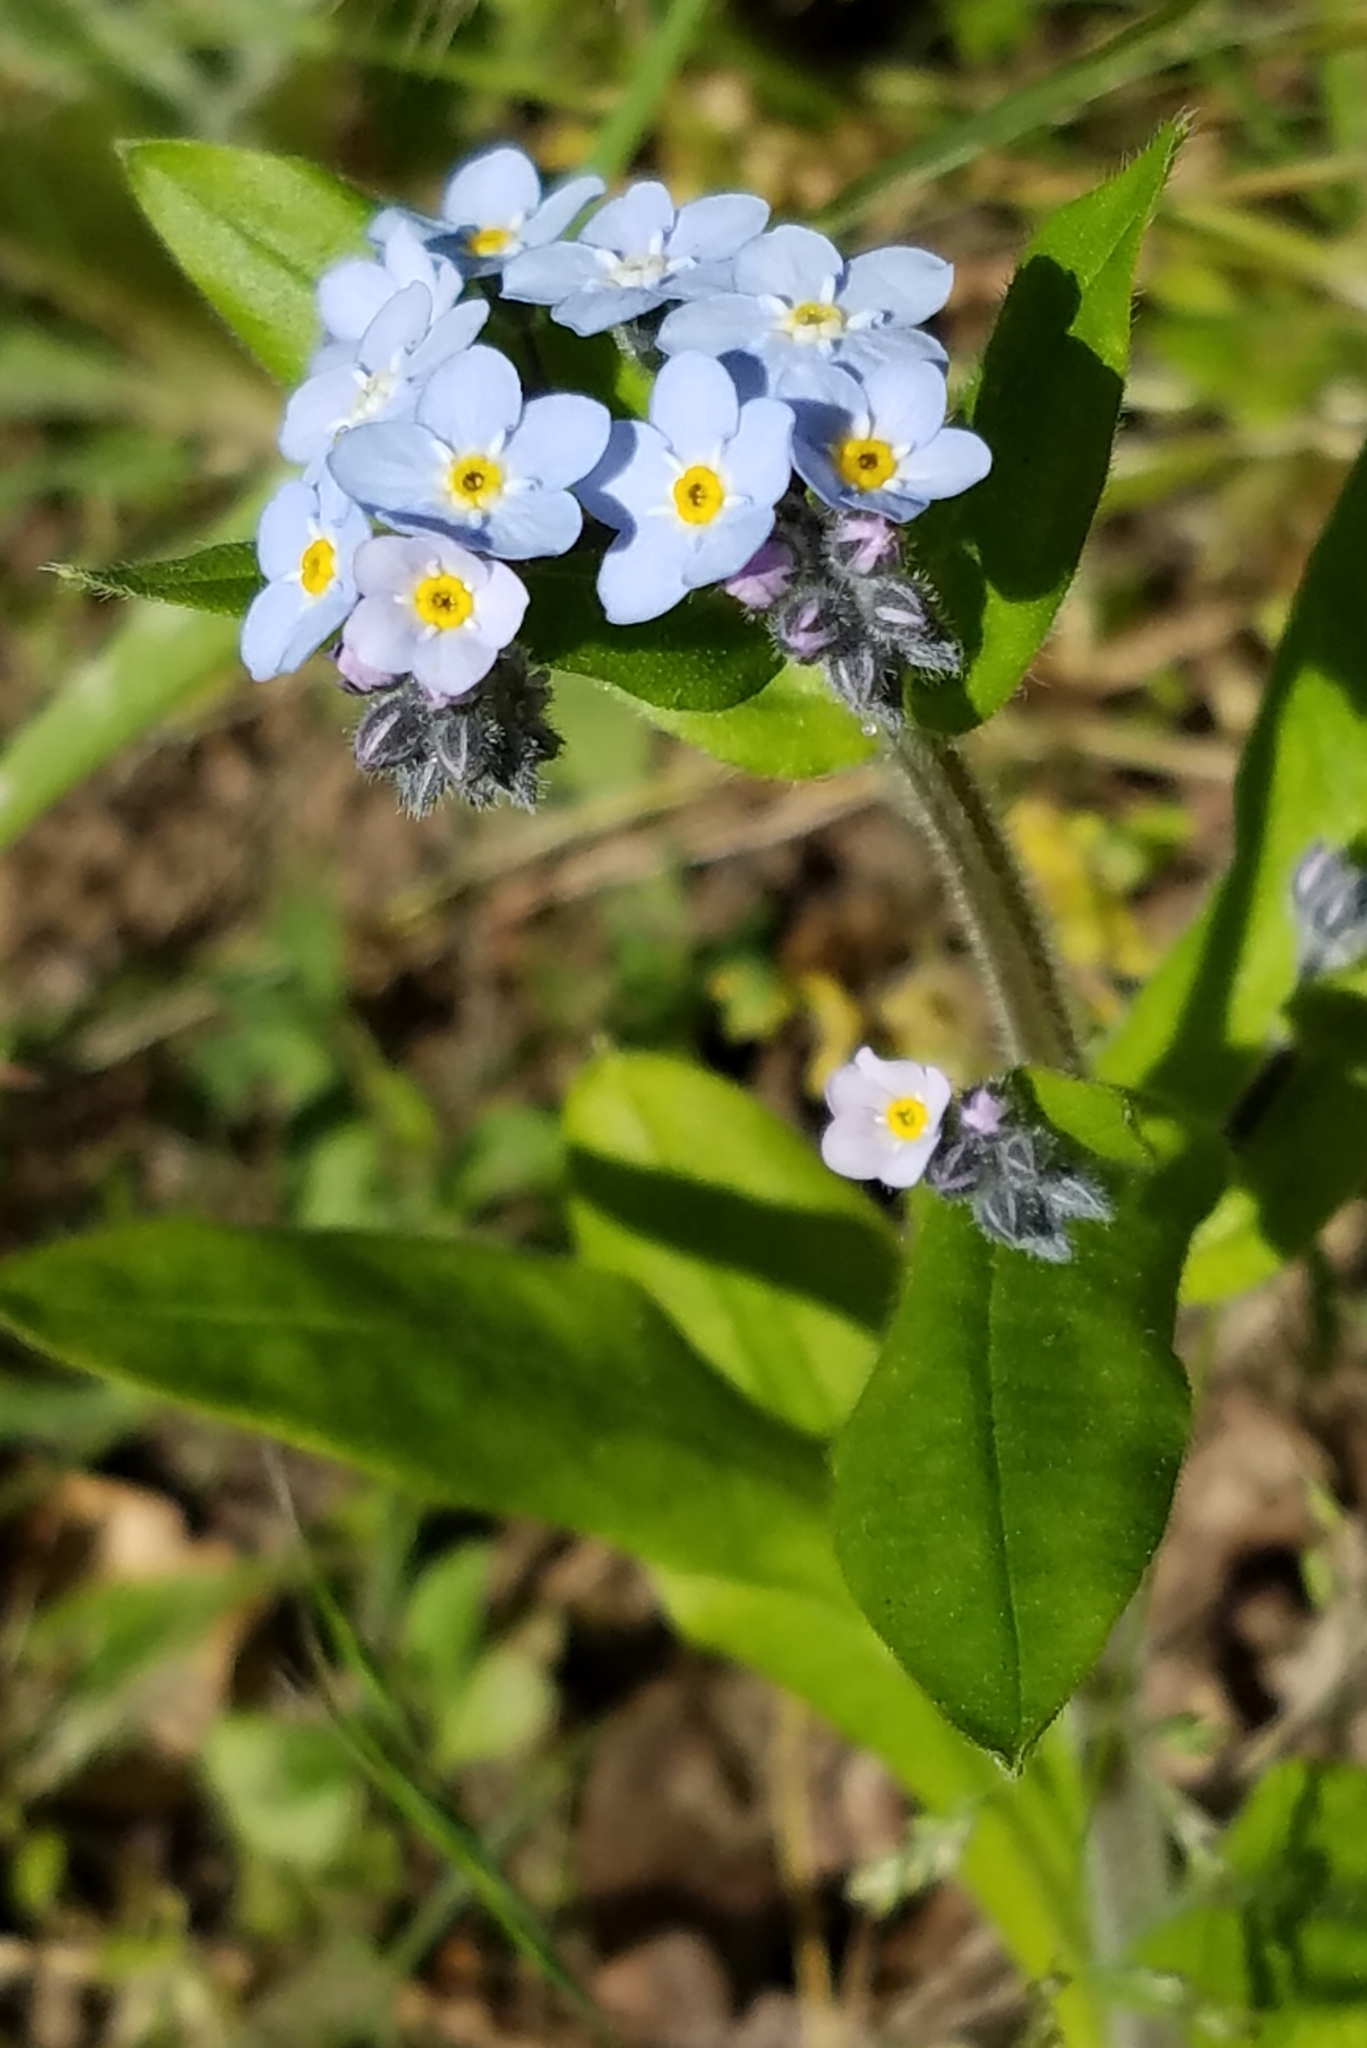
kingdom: Plantae
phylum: Tracheophyta
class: Magnoliopsida
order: Boraginales
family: Boraginaceae
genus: Myosotis
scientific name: Myosotis latifolia
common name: Broadleaf forget-me-not
